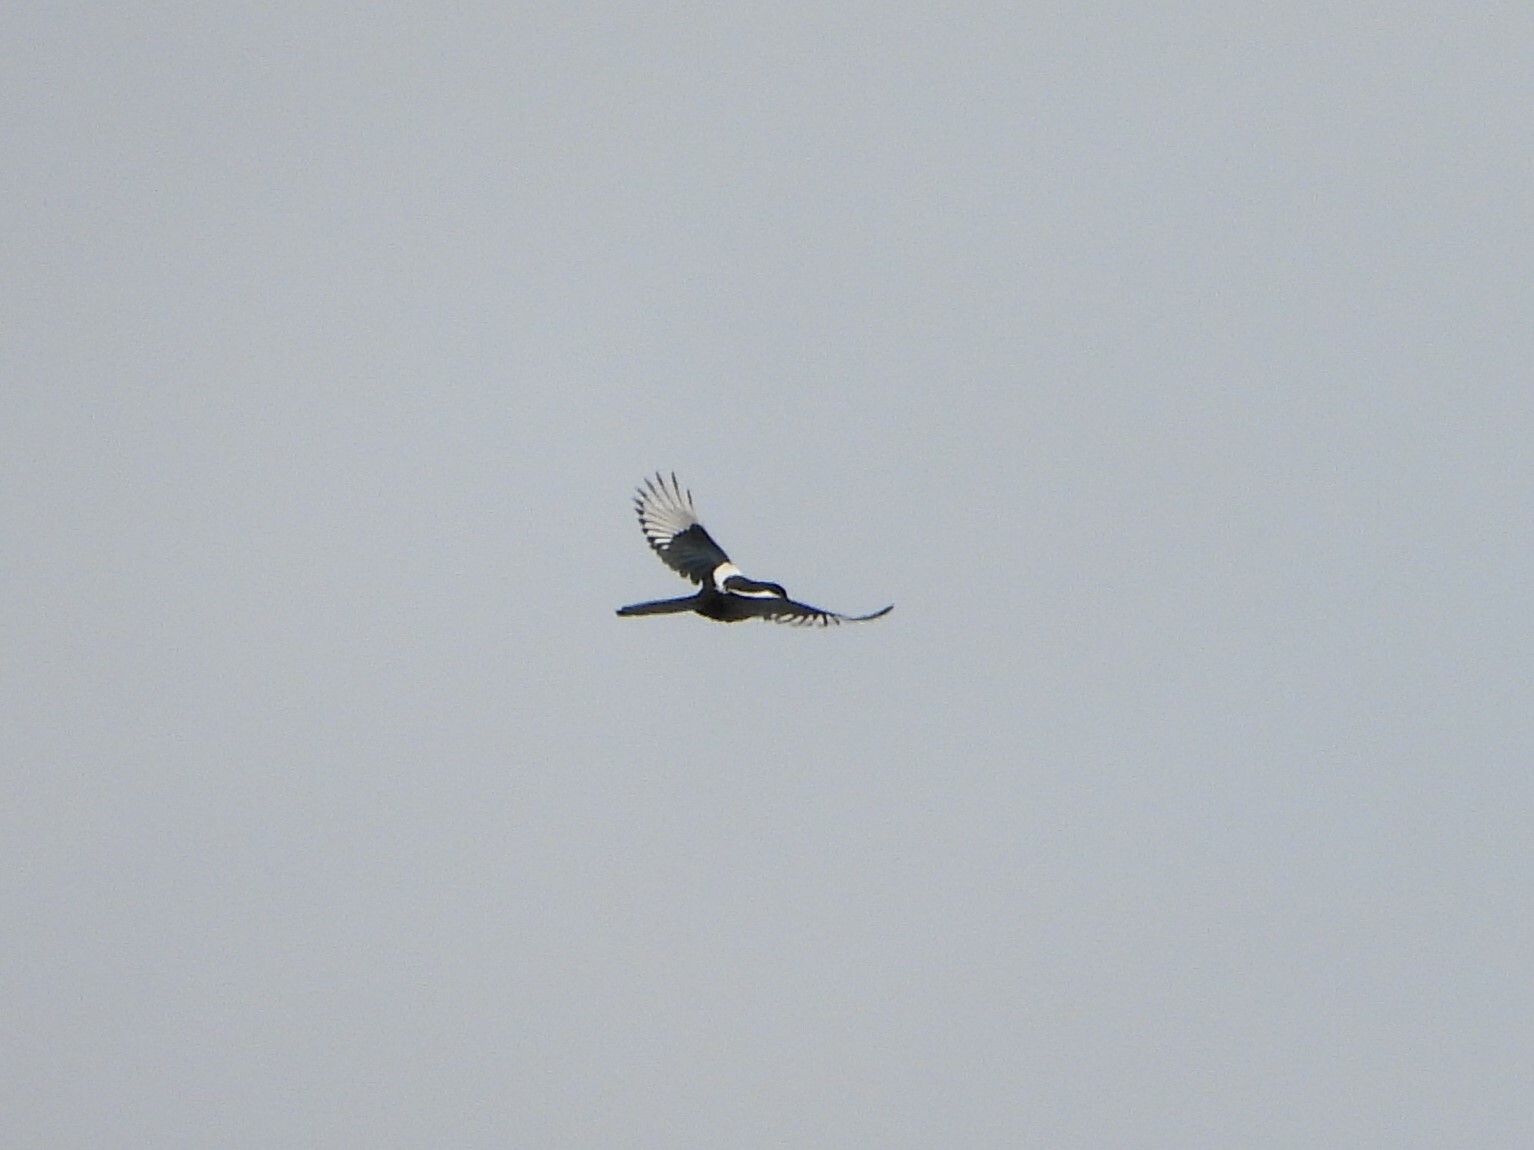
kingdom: Animalia
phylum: Chordata
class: Aves
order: Passeriformes
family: Corvidae
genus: Pica
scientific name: Pica pica
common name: Eurasian magpie
